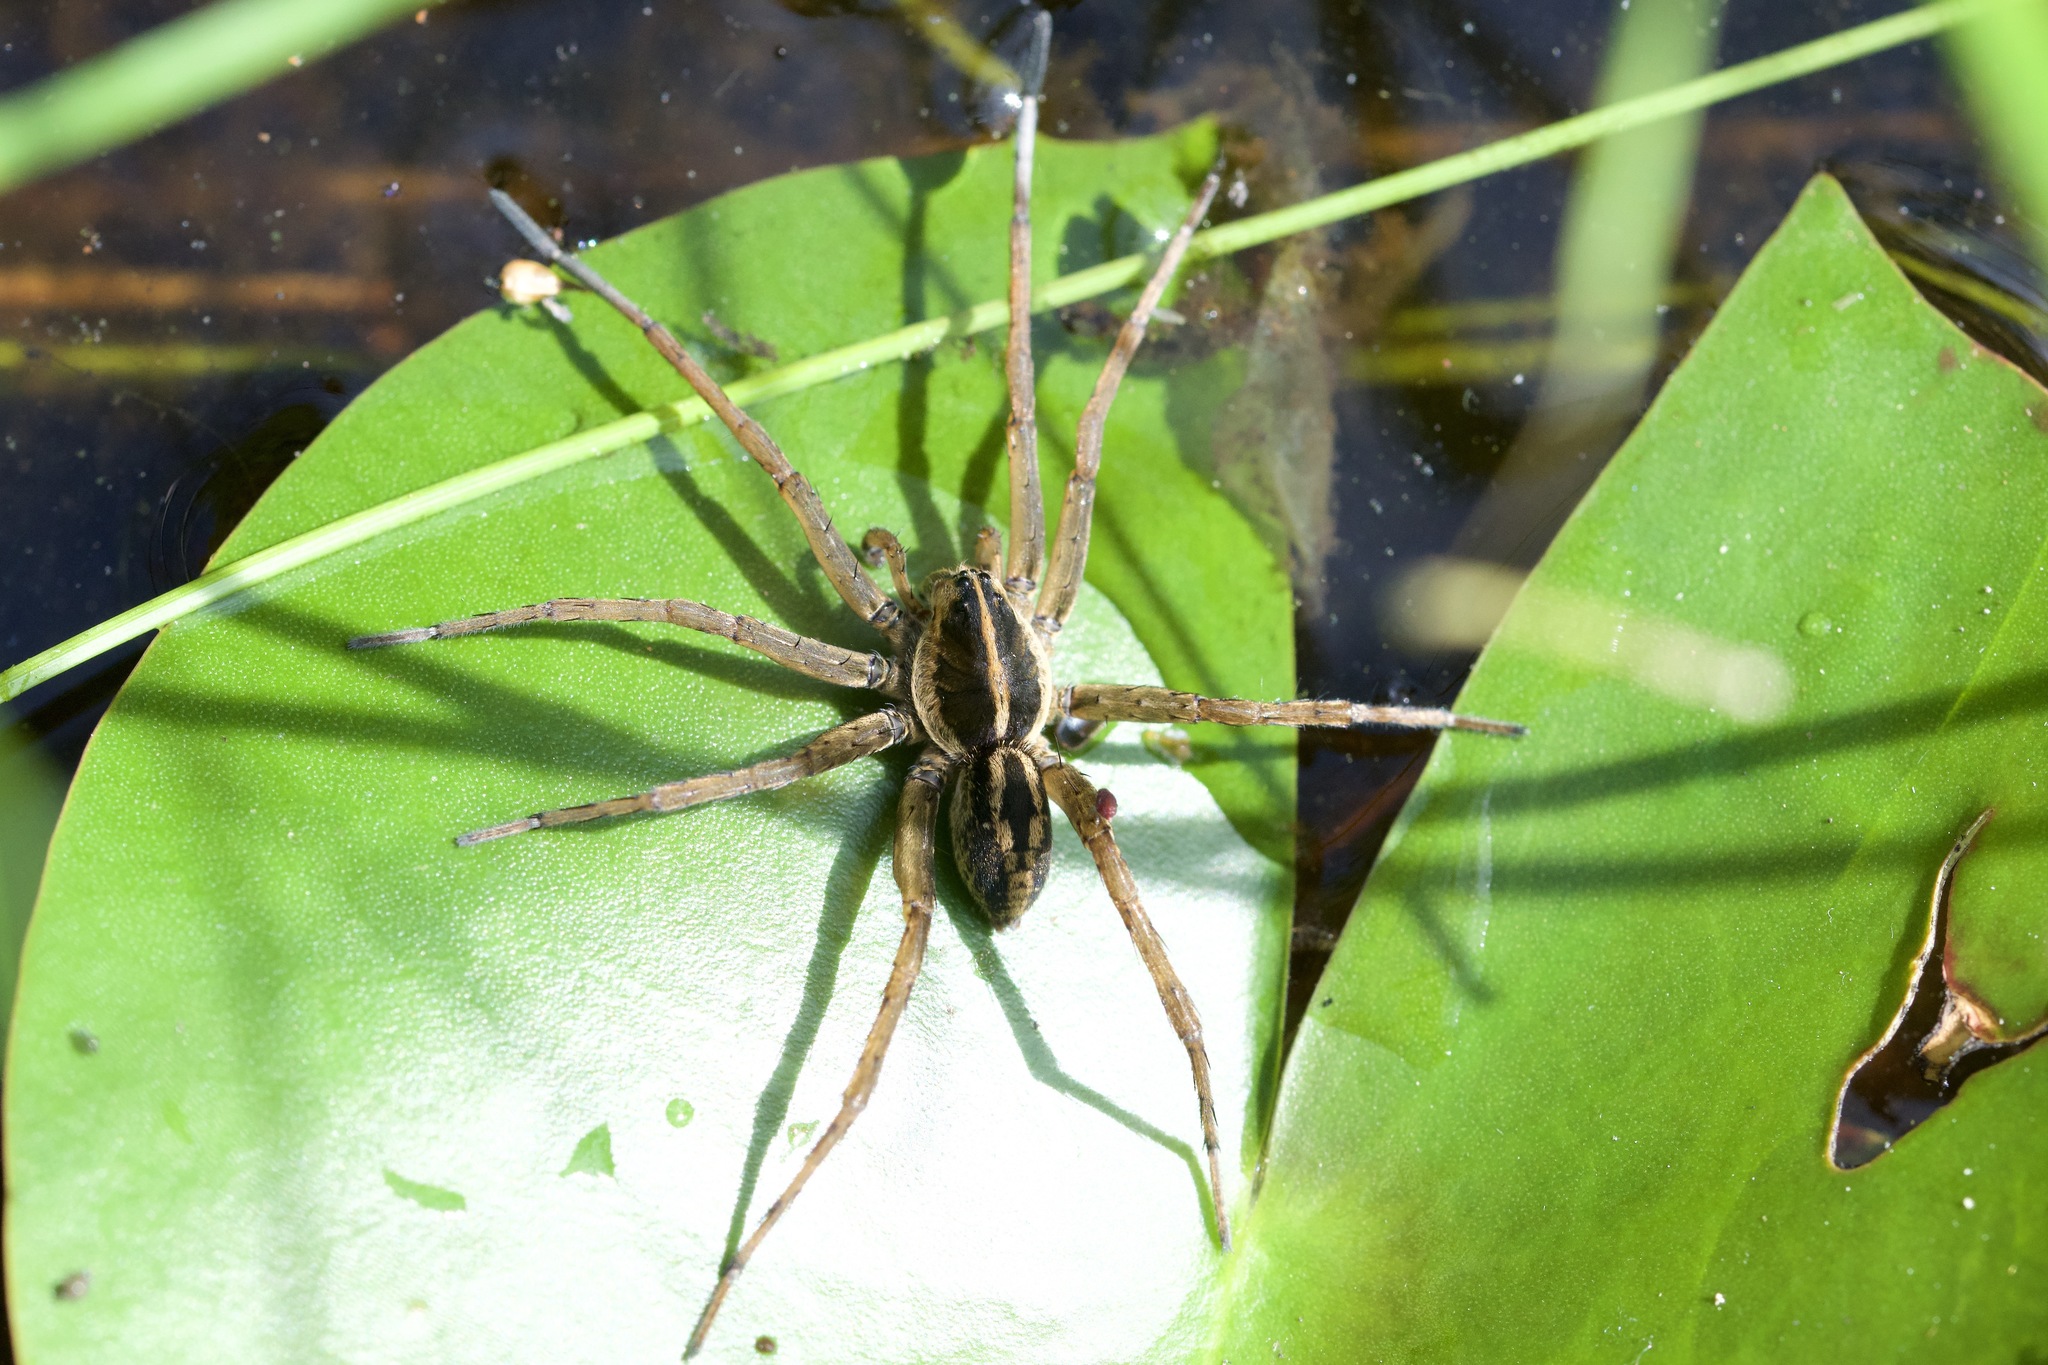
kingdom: Animalia
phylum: Arthropoda
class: Arachnida
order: Araneae
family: Lycosidae
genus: Tigrosa
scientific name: Tigrosa helluo
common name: Wetland giant wolf spider
